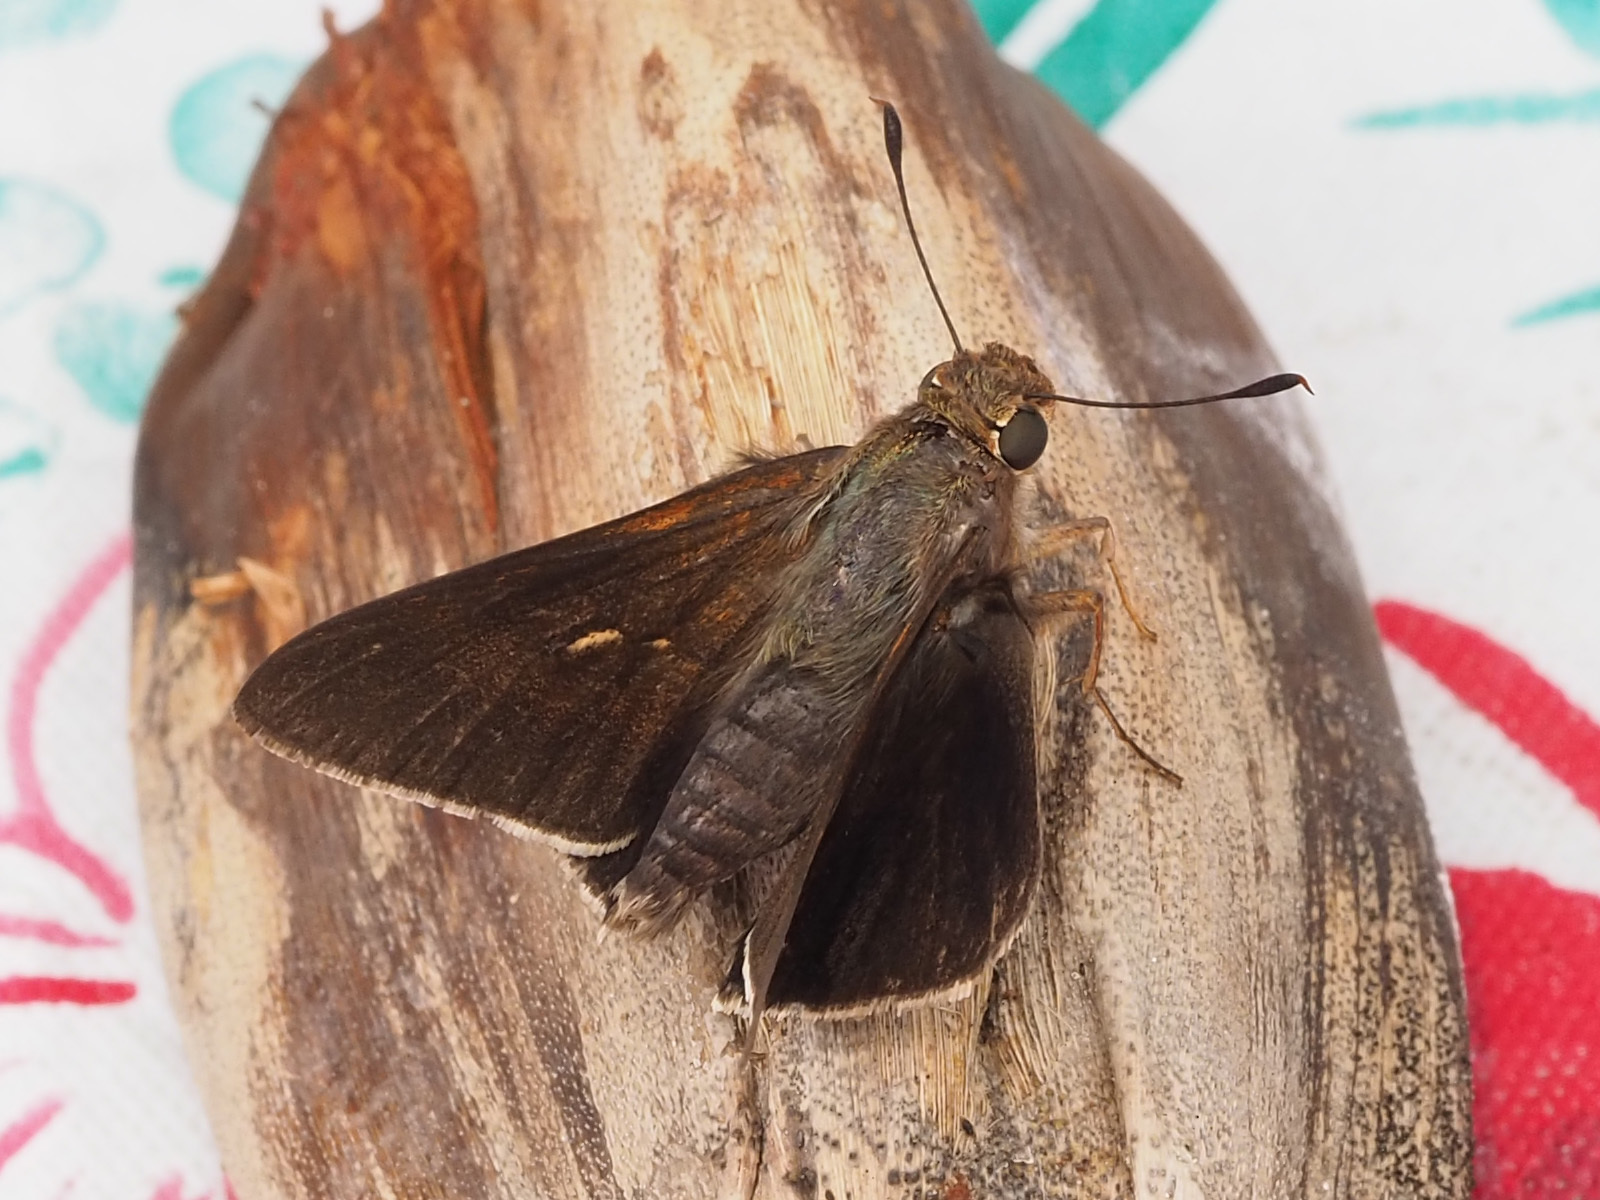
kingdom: Animalia
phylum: Arthropoda
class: Insecta
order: Lepidoptera
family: Hesperiidae
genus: Asbolis
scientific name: Asbolis capucinus
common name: Monk skipper
